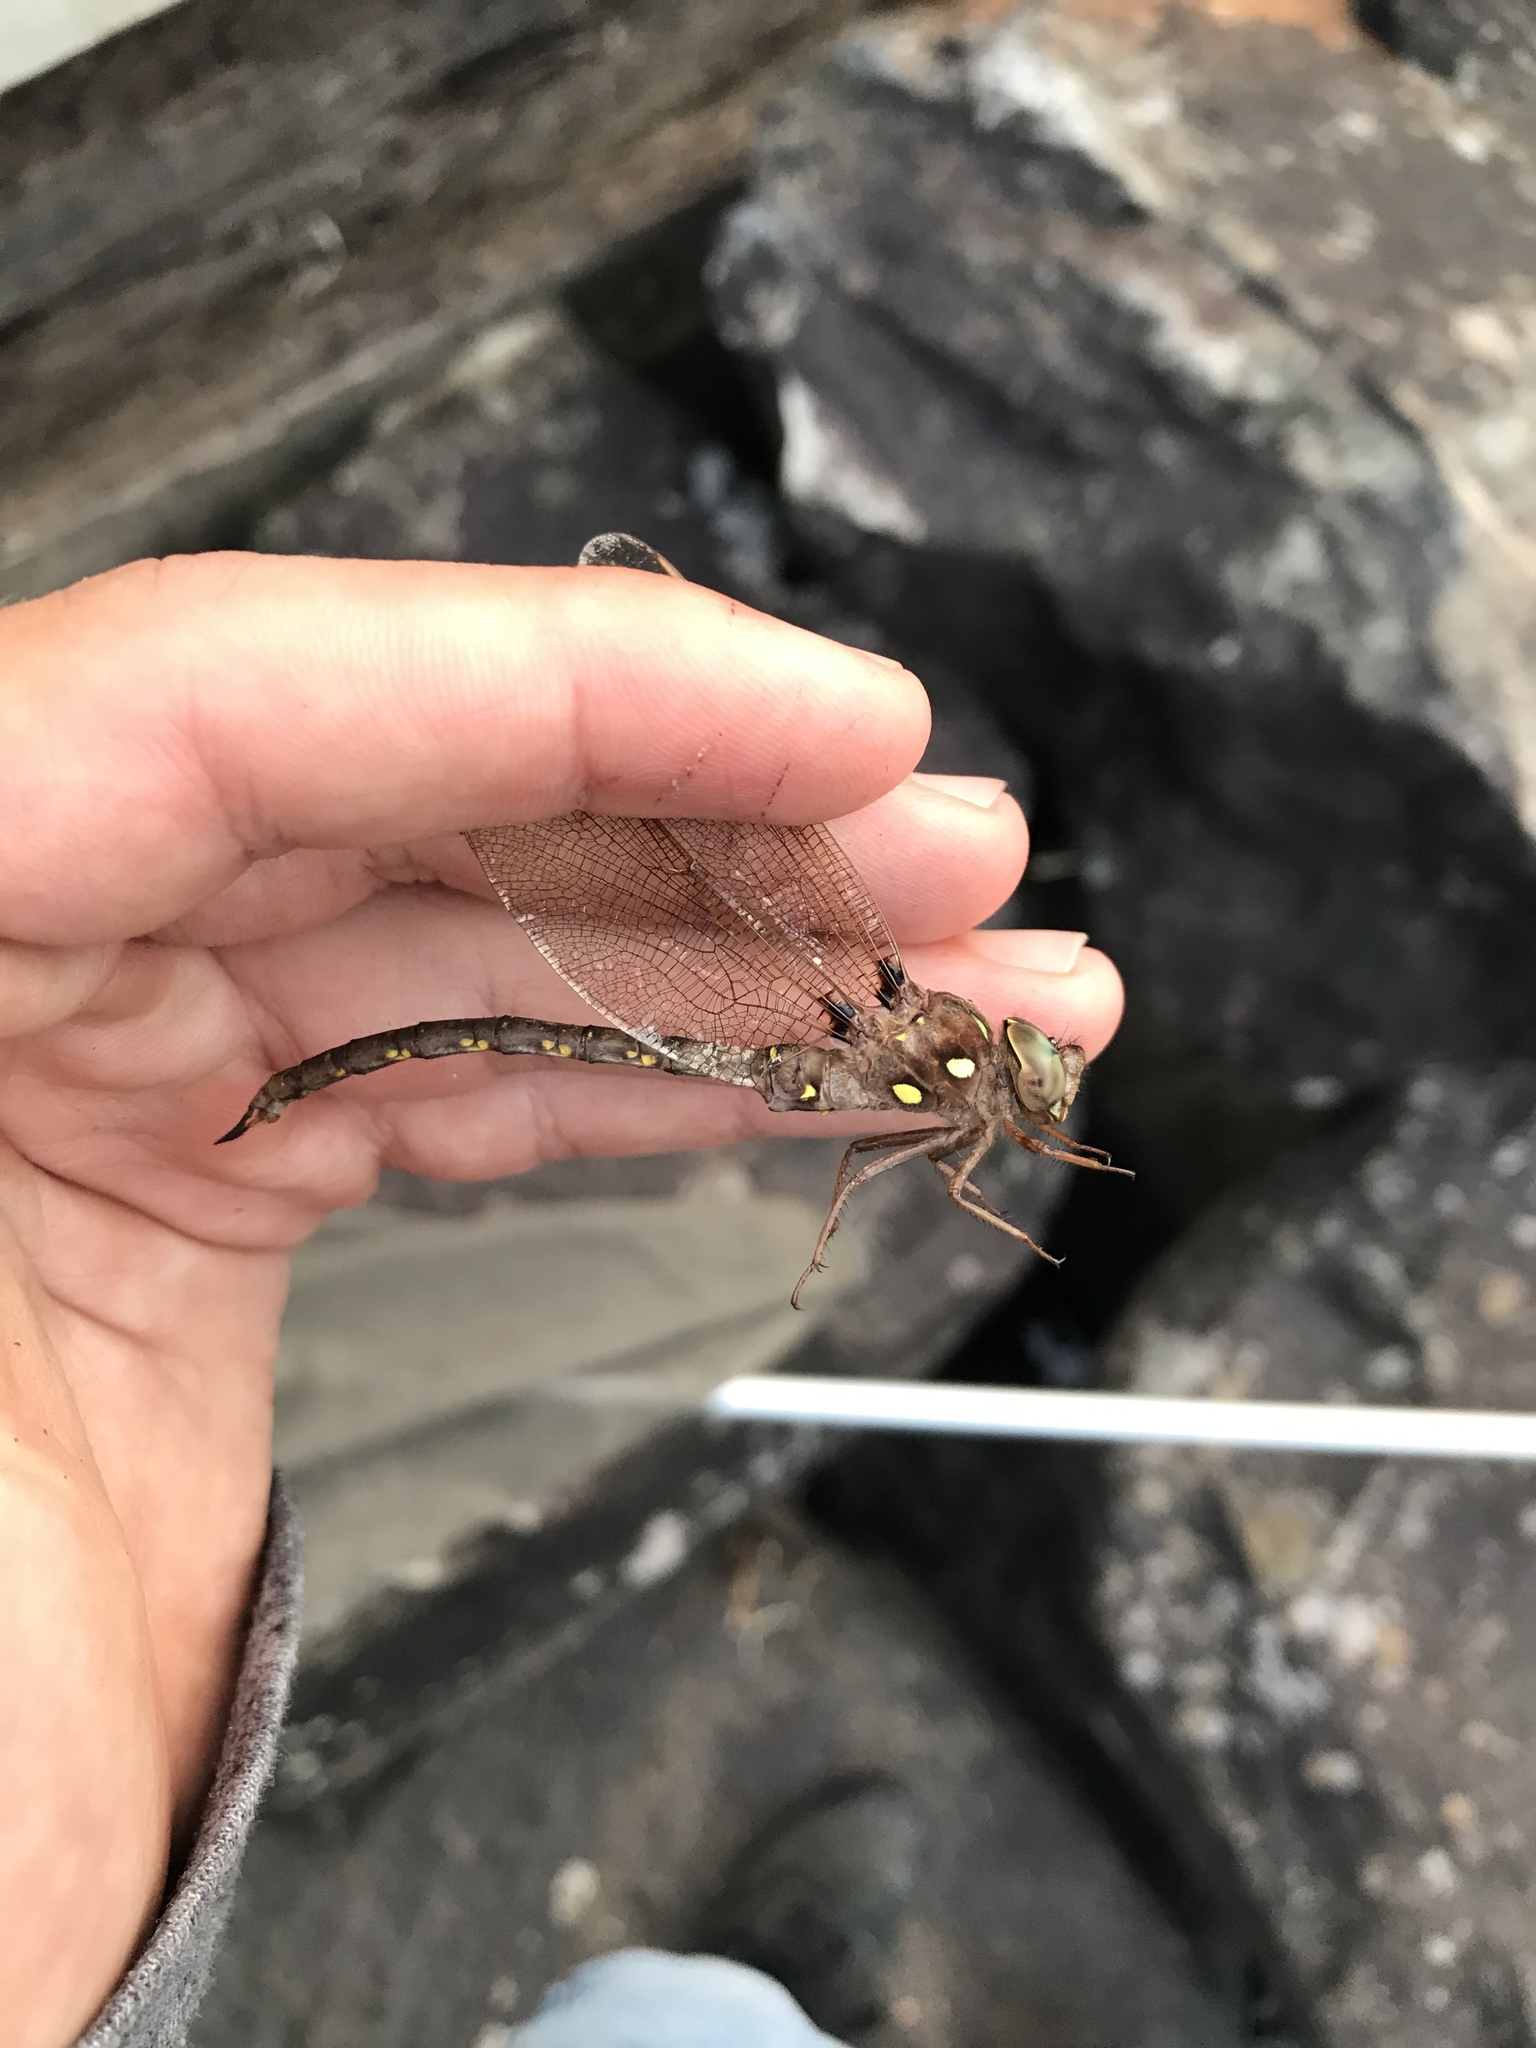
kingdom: Animalia
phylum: Arthropoda
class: Insecta
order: Odonata
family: Aeshnidae
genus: Boyeria
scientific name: Boyeria vinosa
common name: Fawn darner
